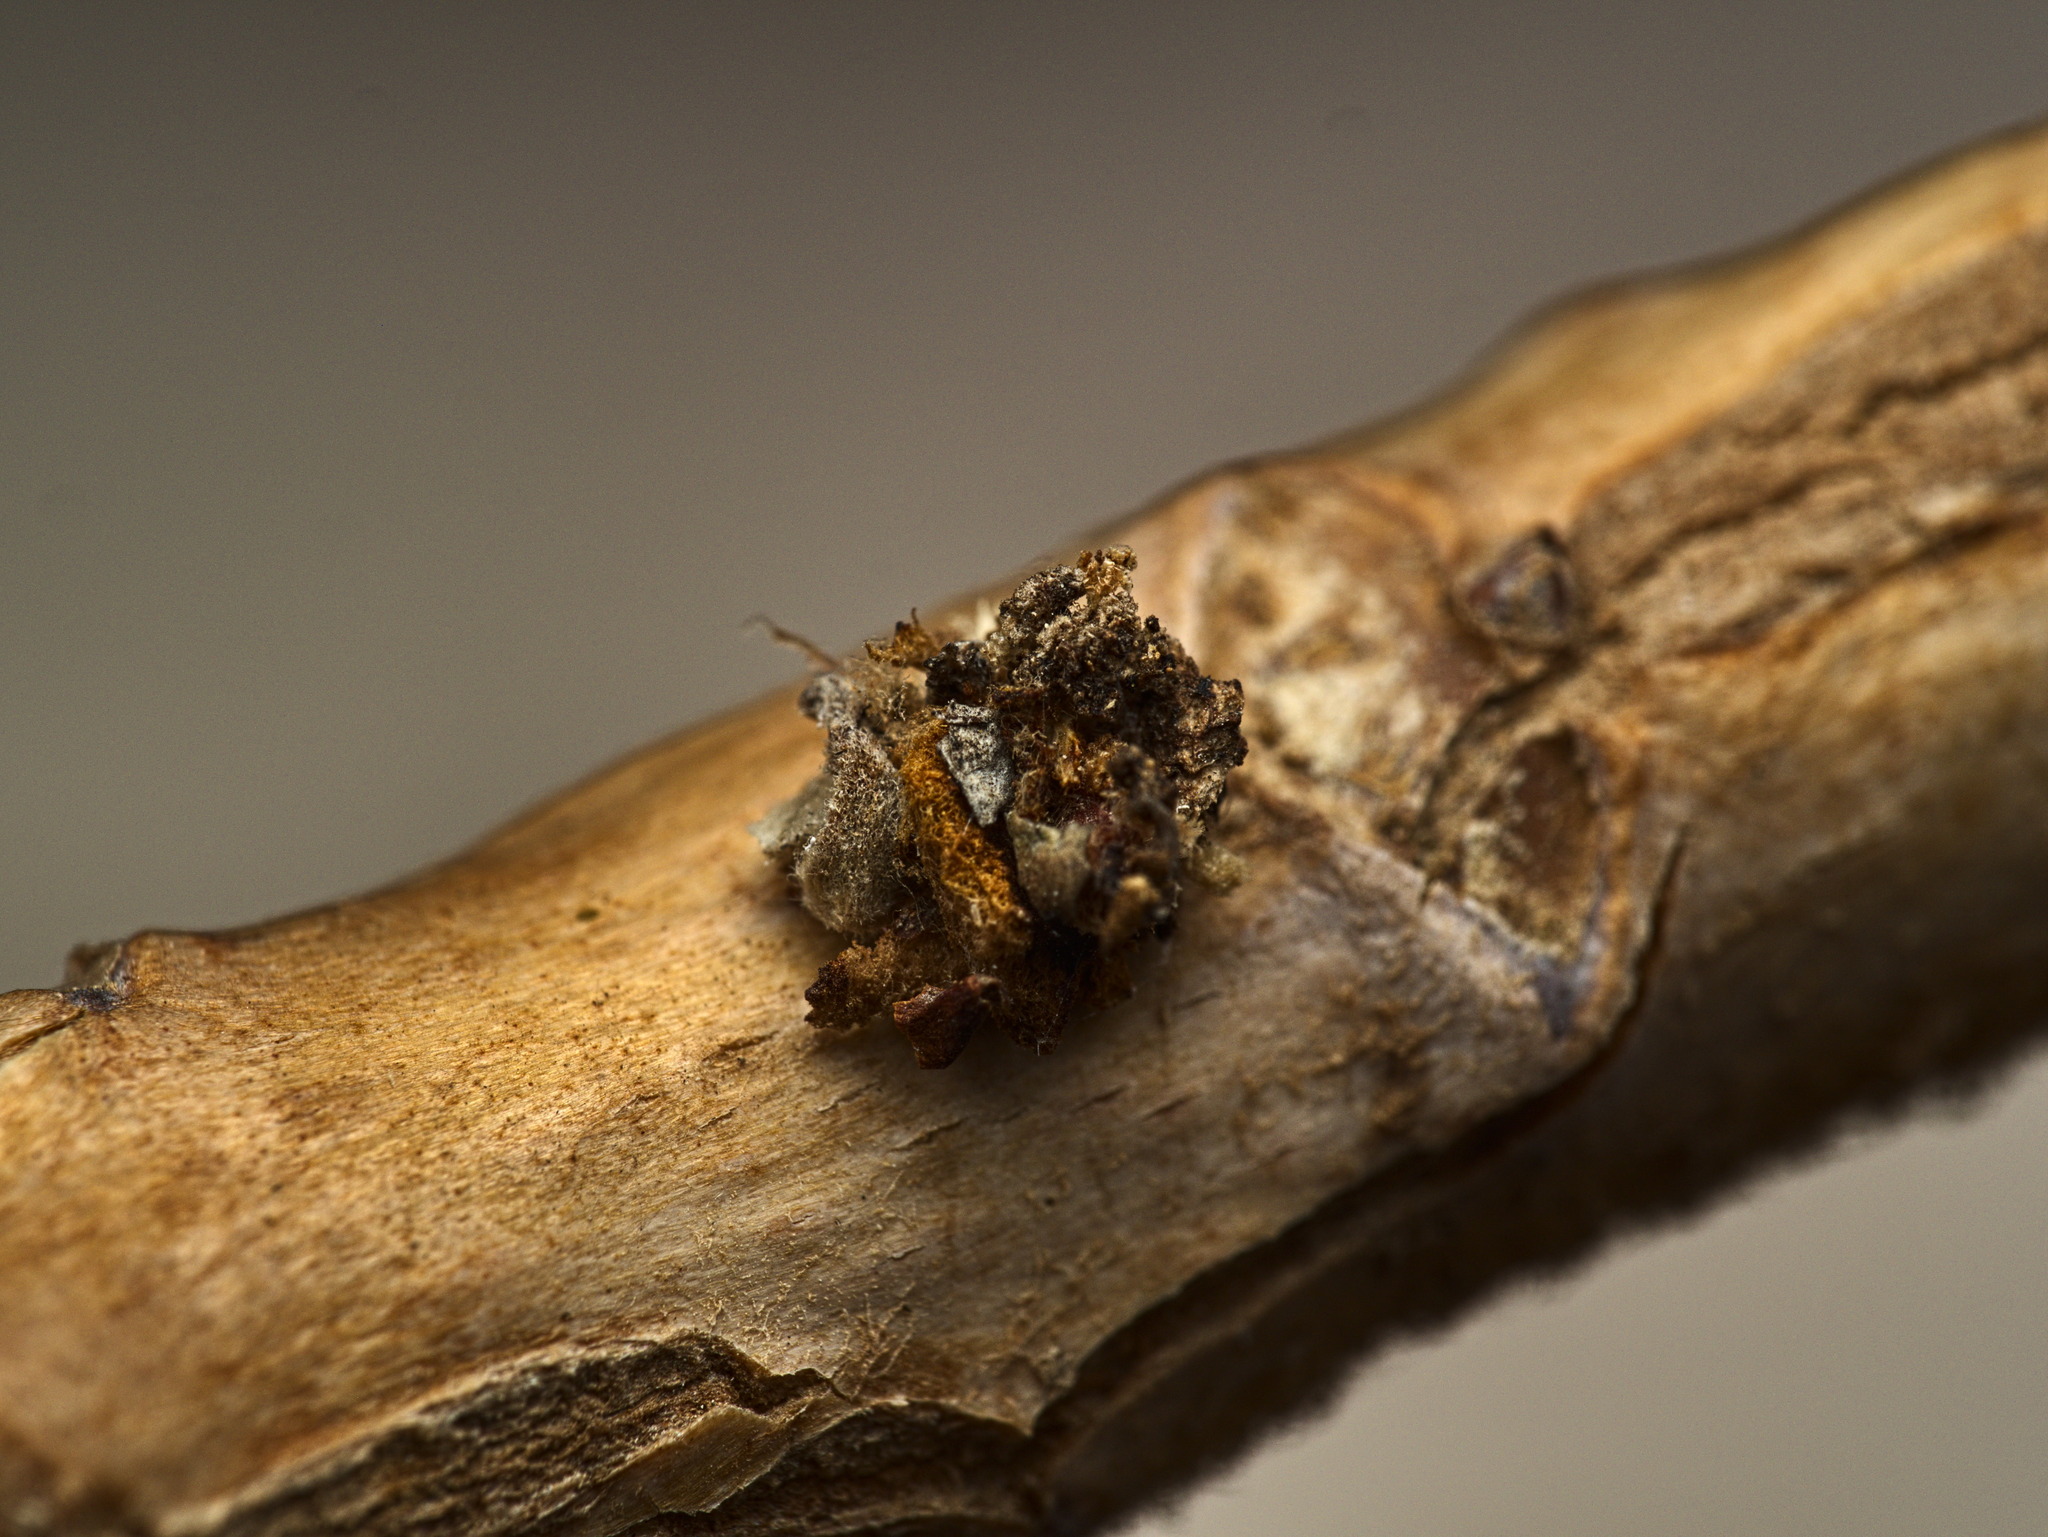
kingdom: Fungi
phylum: Basidiomycota
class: Pucciniomycetes
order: Pucciniales
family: Gymnosporangiaceae
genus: Gymnosporangium
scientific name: Gymnosporangium clavipes
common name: Quince rust
